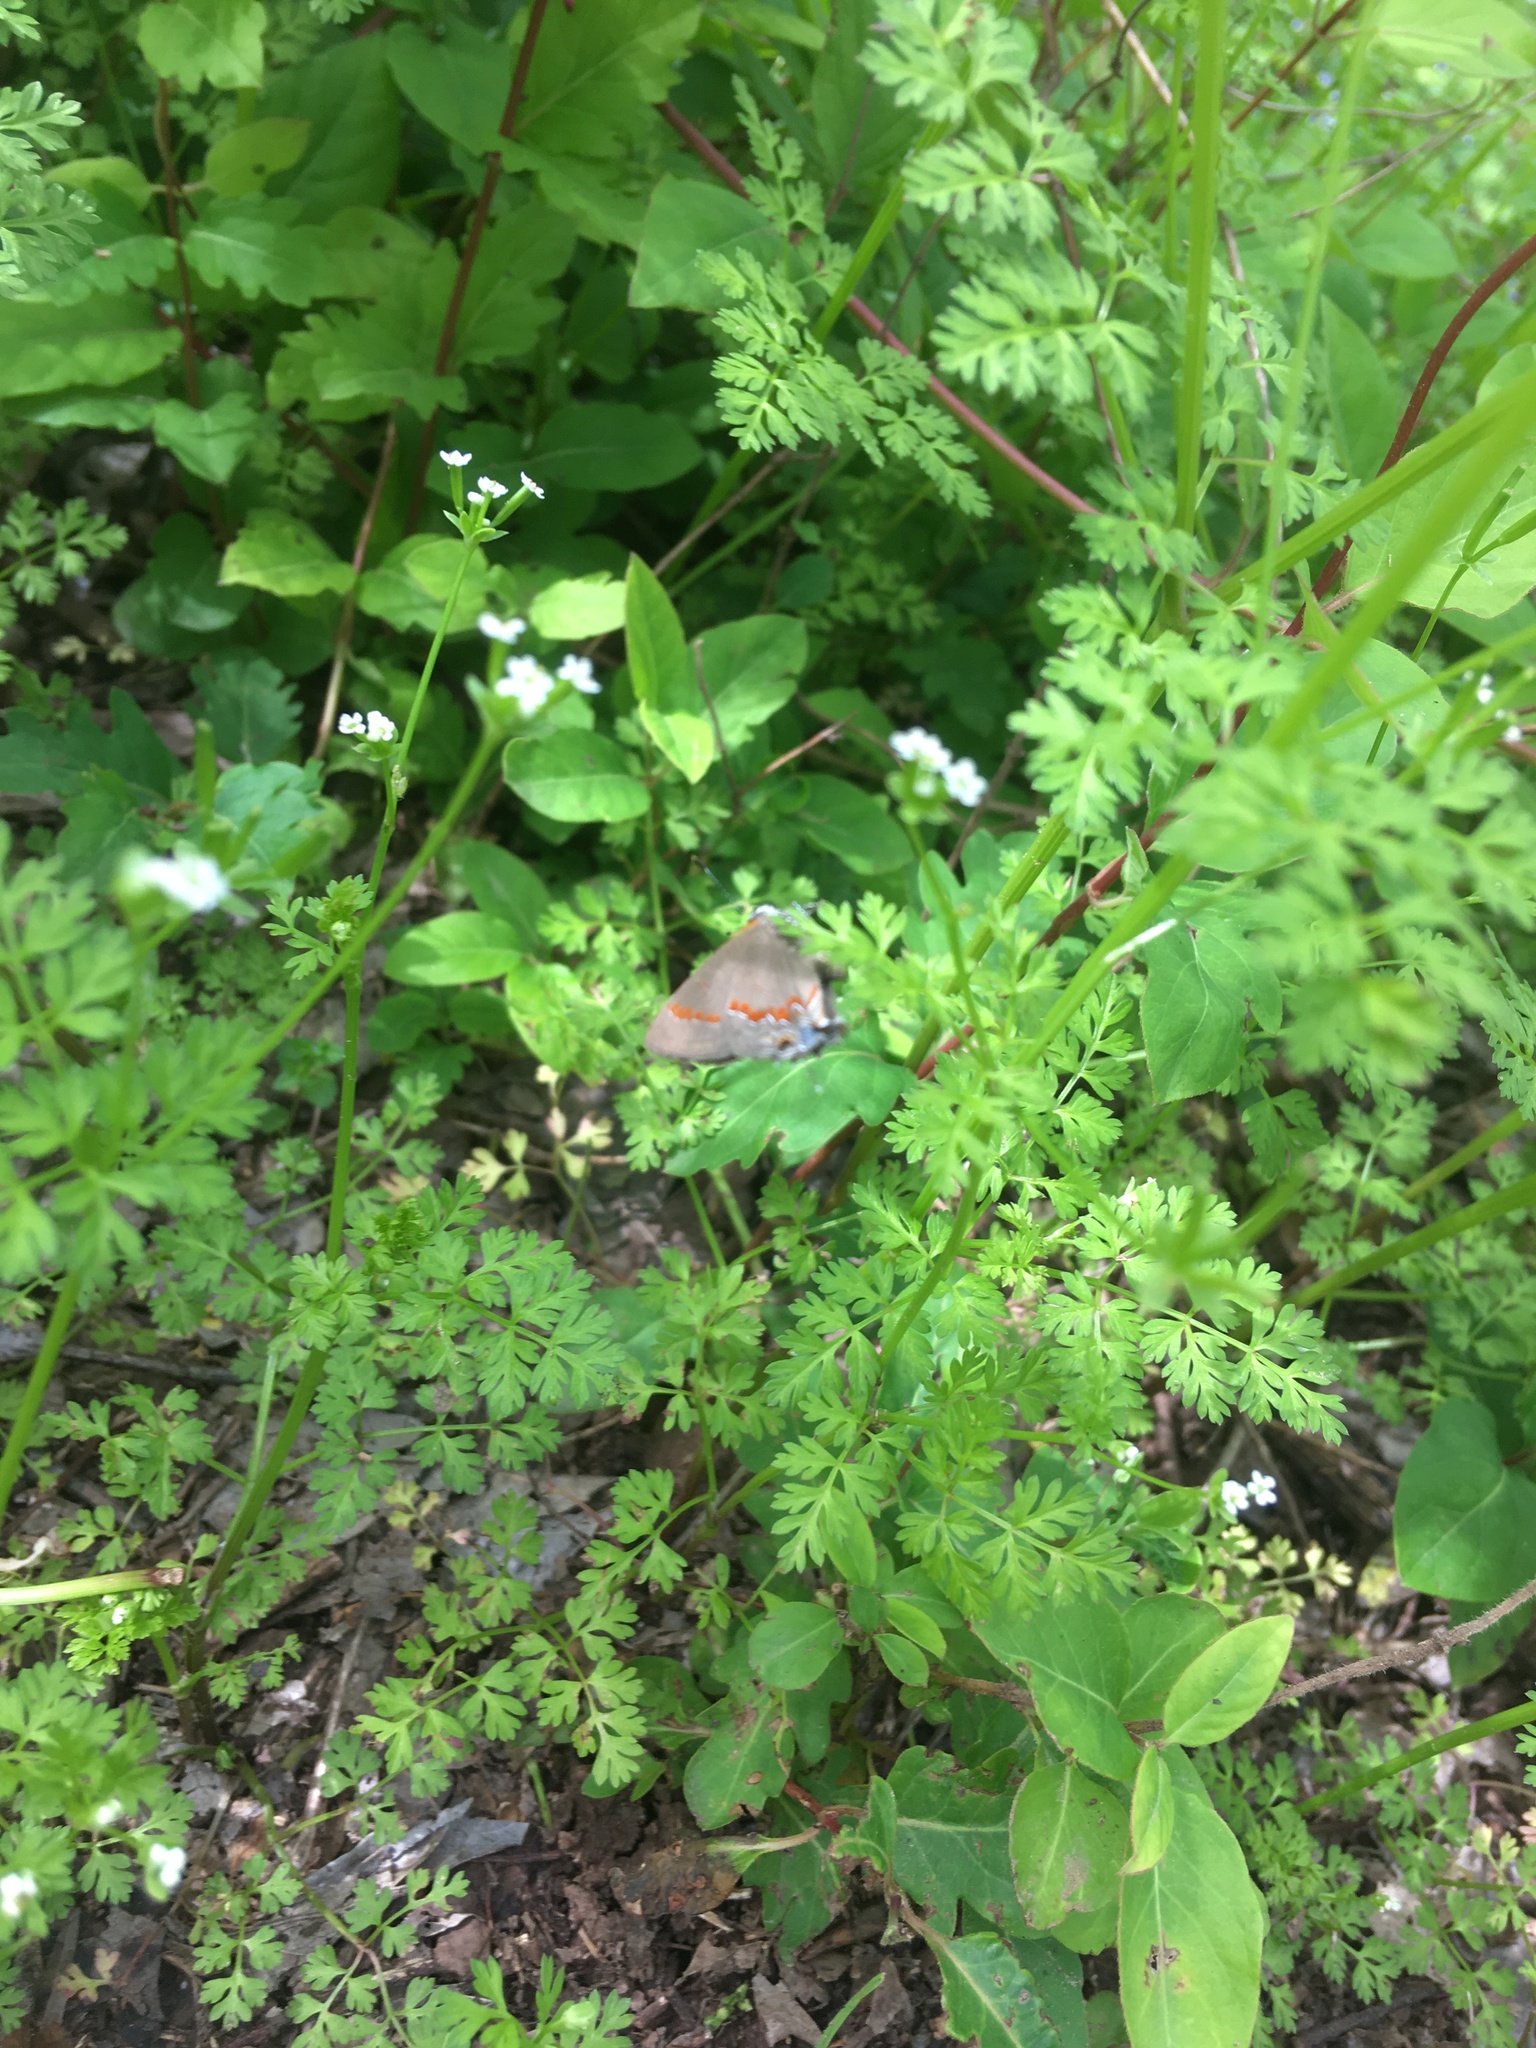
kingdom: Animalia
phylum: Arthropoda
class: Insecta
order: Lepidoptera
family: Lycaenidae
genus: Calycopis
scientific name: Calycopis cecrops
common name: Red-banded hairstreak
